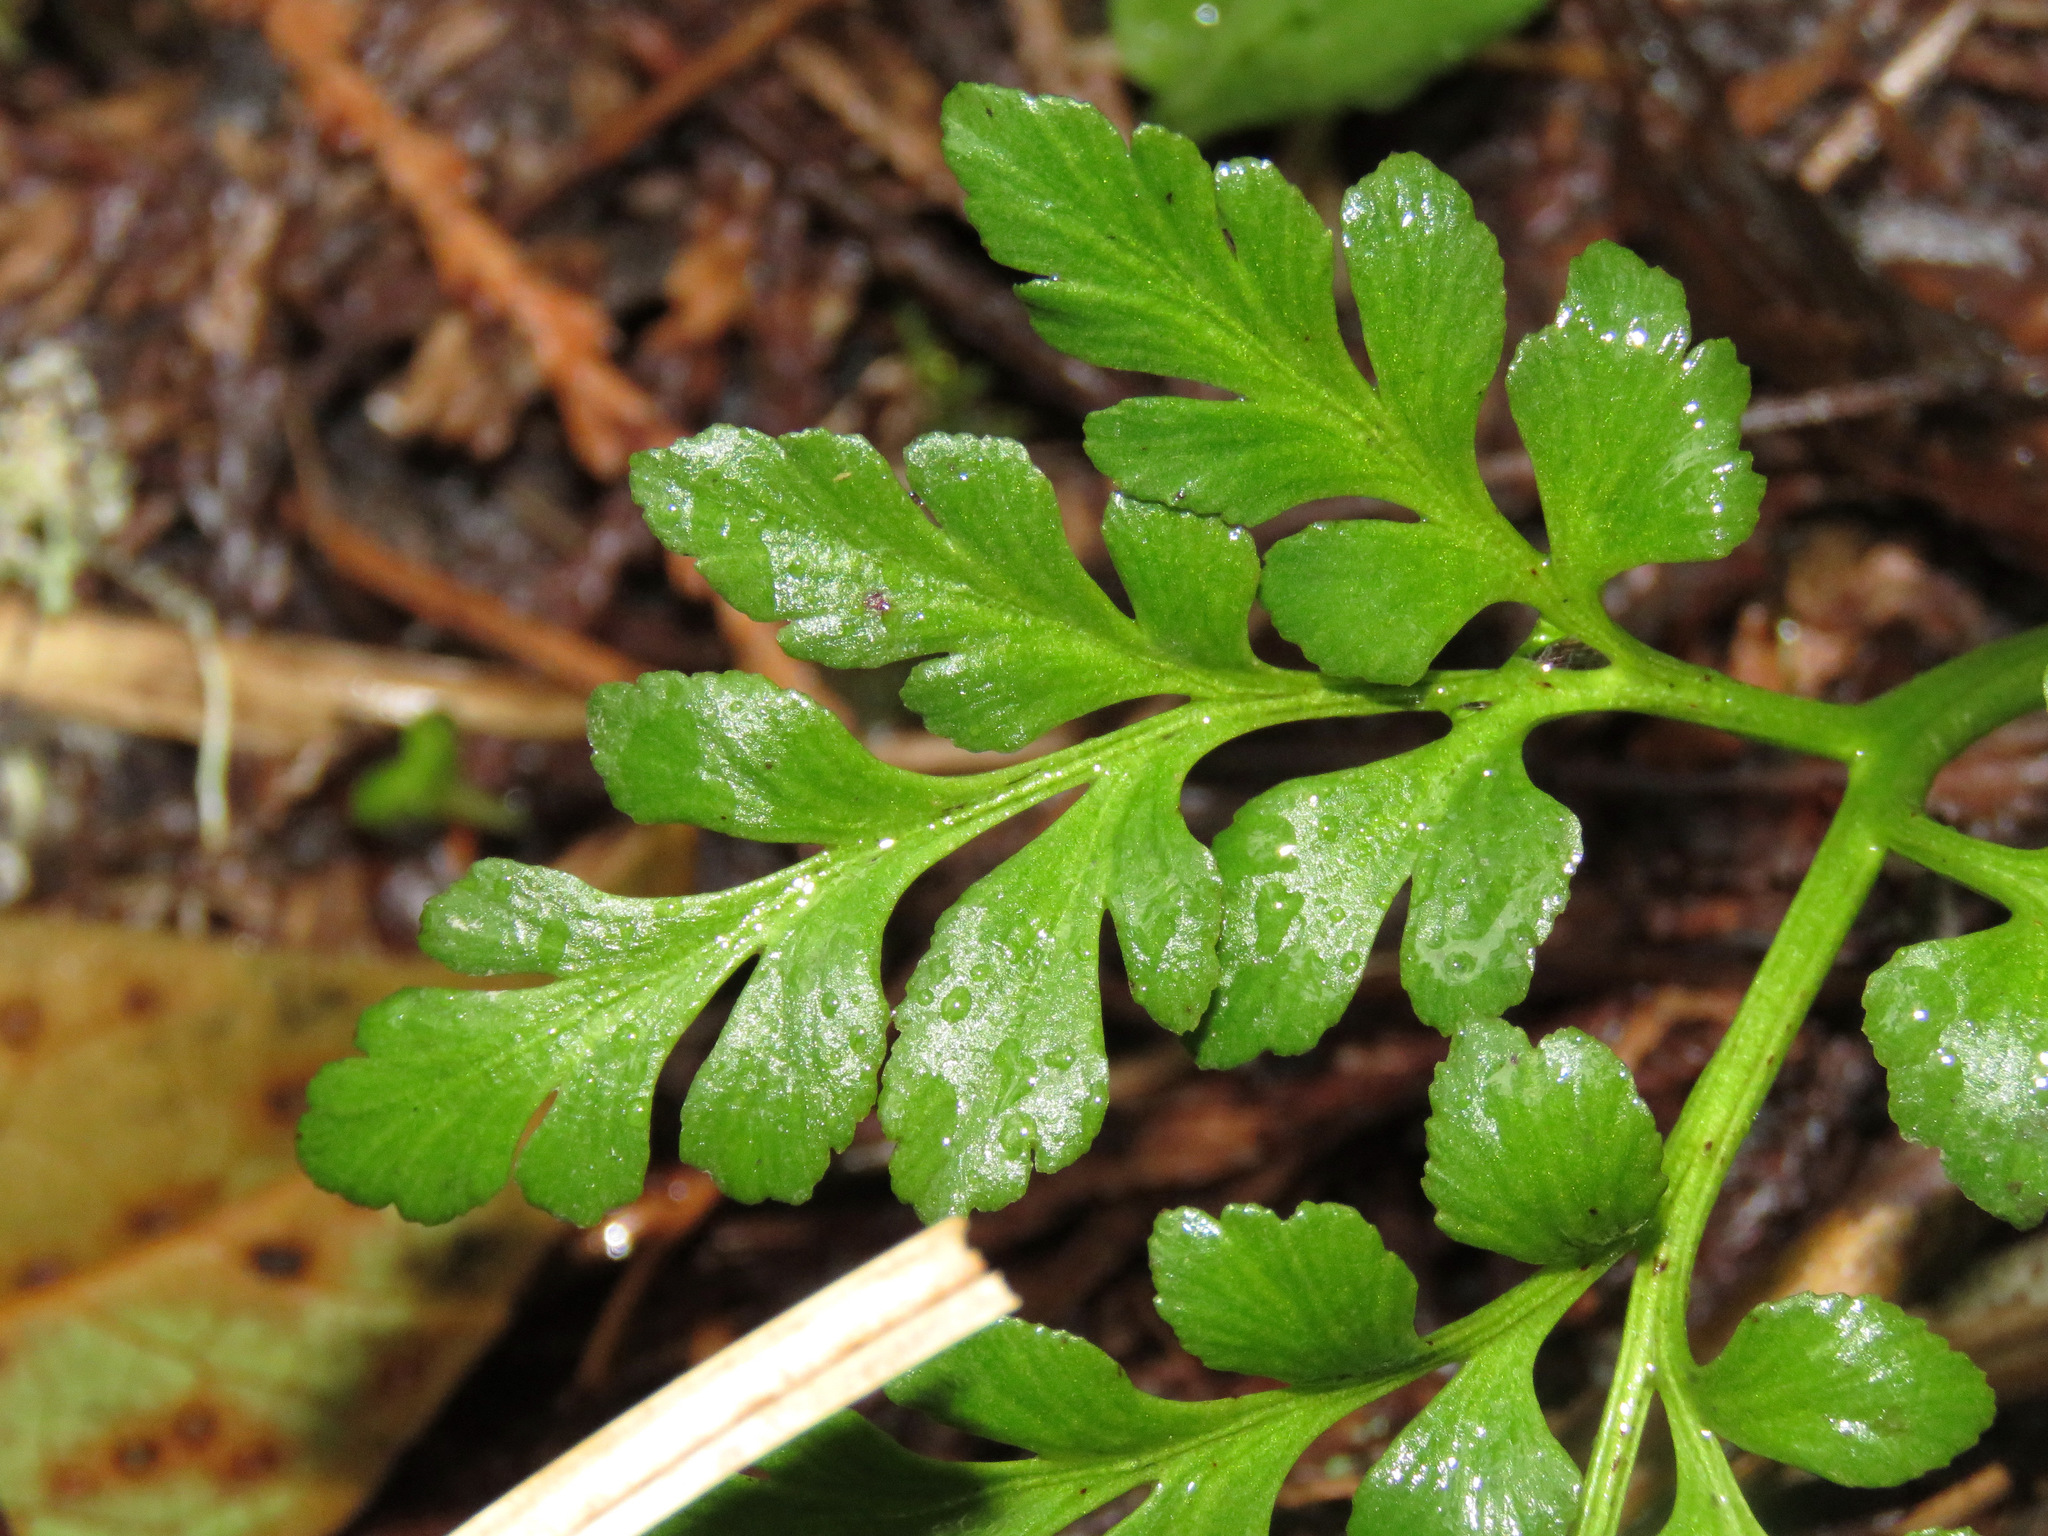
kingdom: Plantae
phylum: Tracheophyta
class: Polypodiopsida
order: Ophioglossales
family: Ophioglossaceae
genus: Sceptridium
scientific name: Sceptridium multifidum
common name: Leathery grape fern
